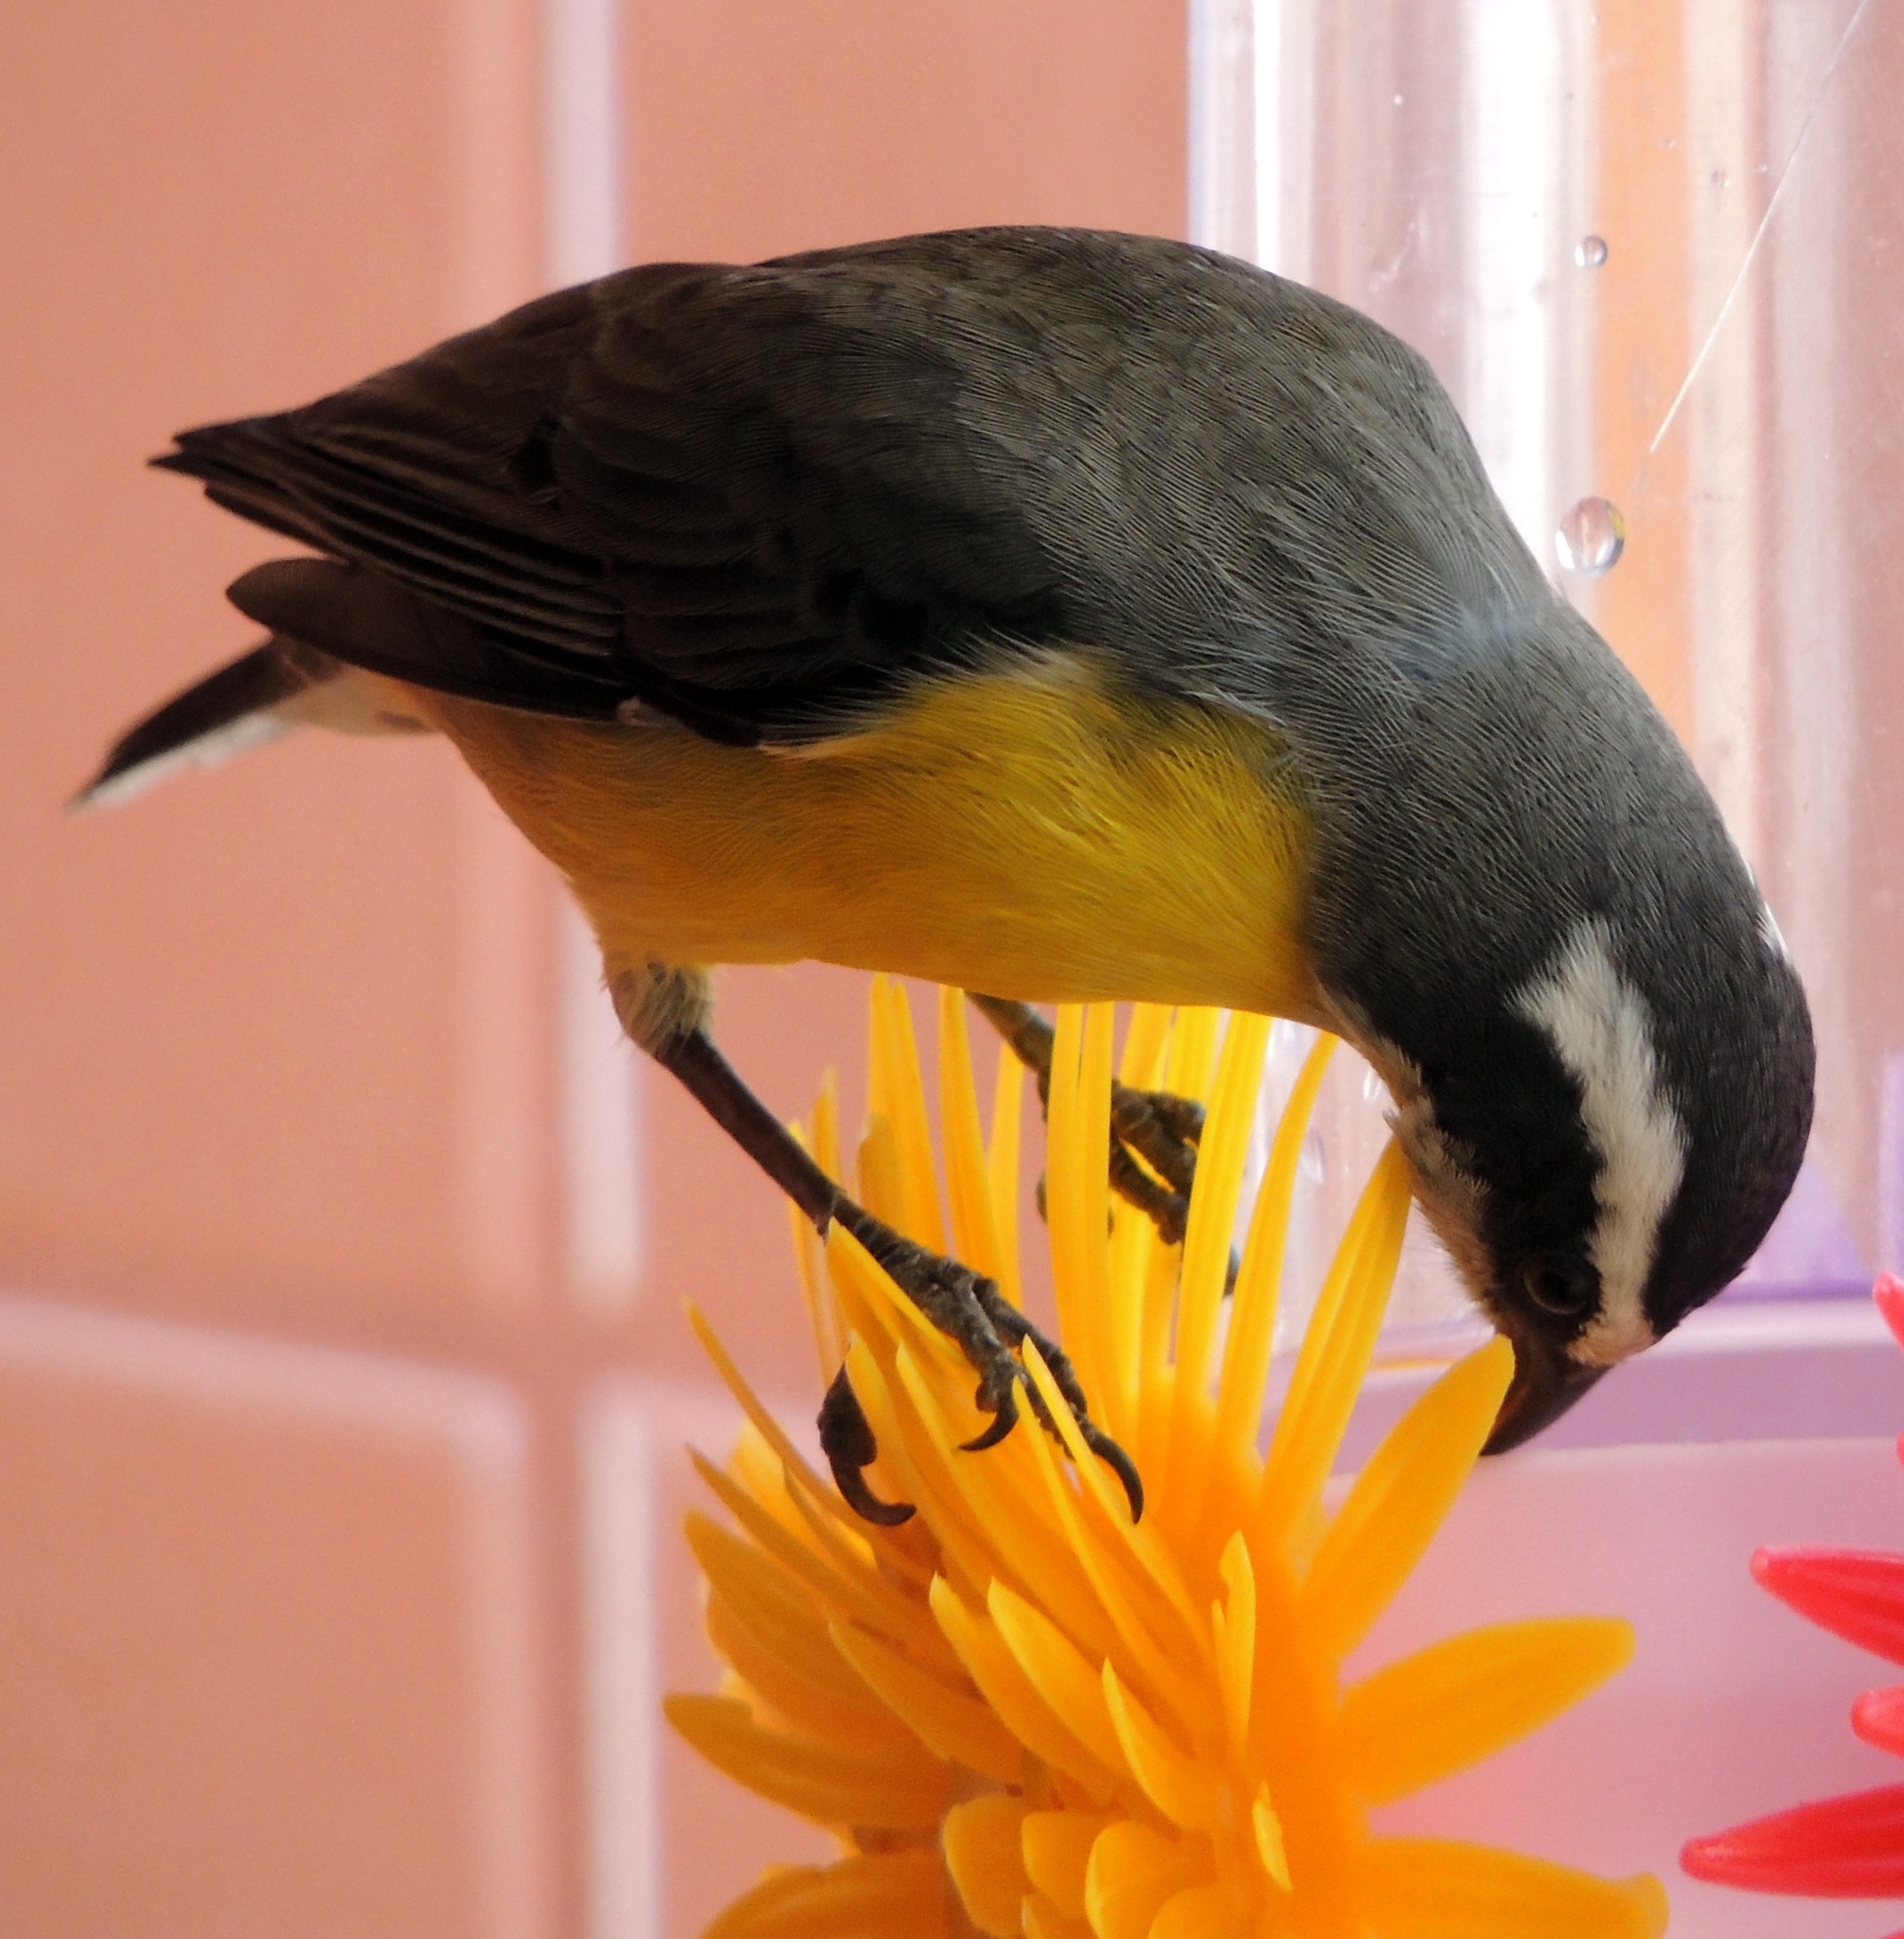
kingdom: Animalia
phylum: Chordata
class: Aves
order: Passeriformes
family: Thraupidae
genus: Coereba
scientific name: Coereba flaveola
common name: Bananaquit
